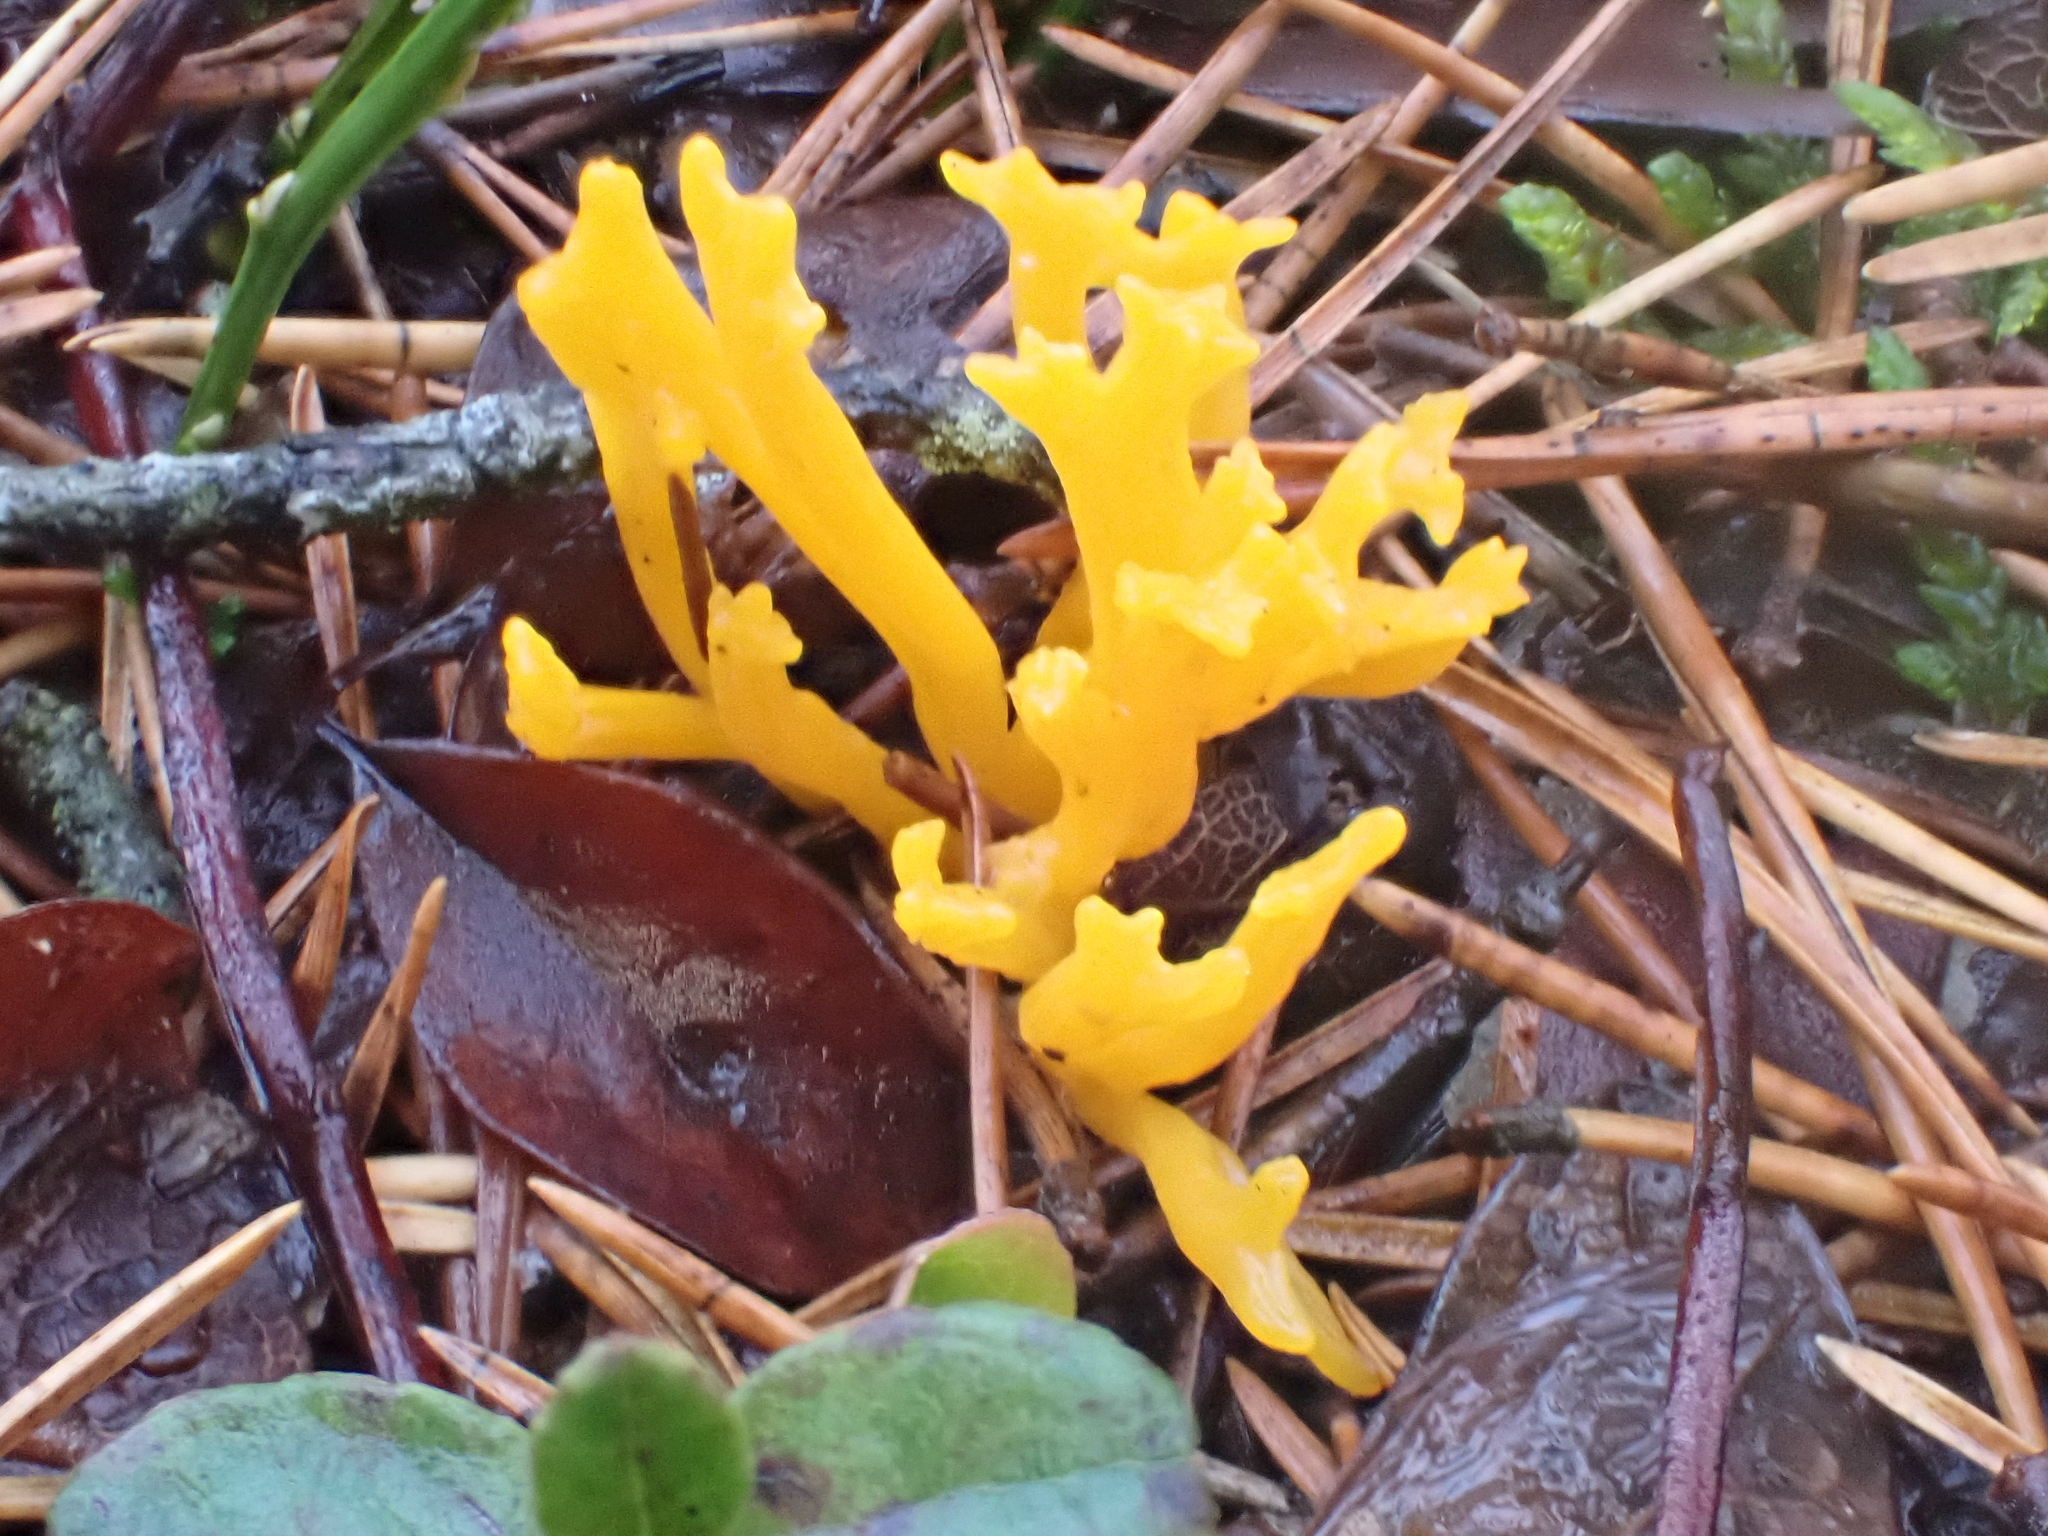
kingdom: Fungi
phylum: Basidiomycota
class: Dacrymycetes
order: Dacrymycetales
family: Dacrymycetaceae
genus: Calocera
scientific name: Calocera viscosa
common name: Yellow stagshorn
